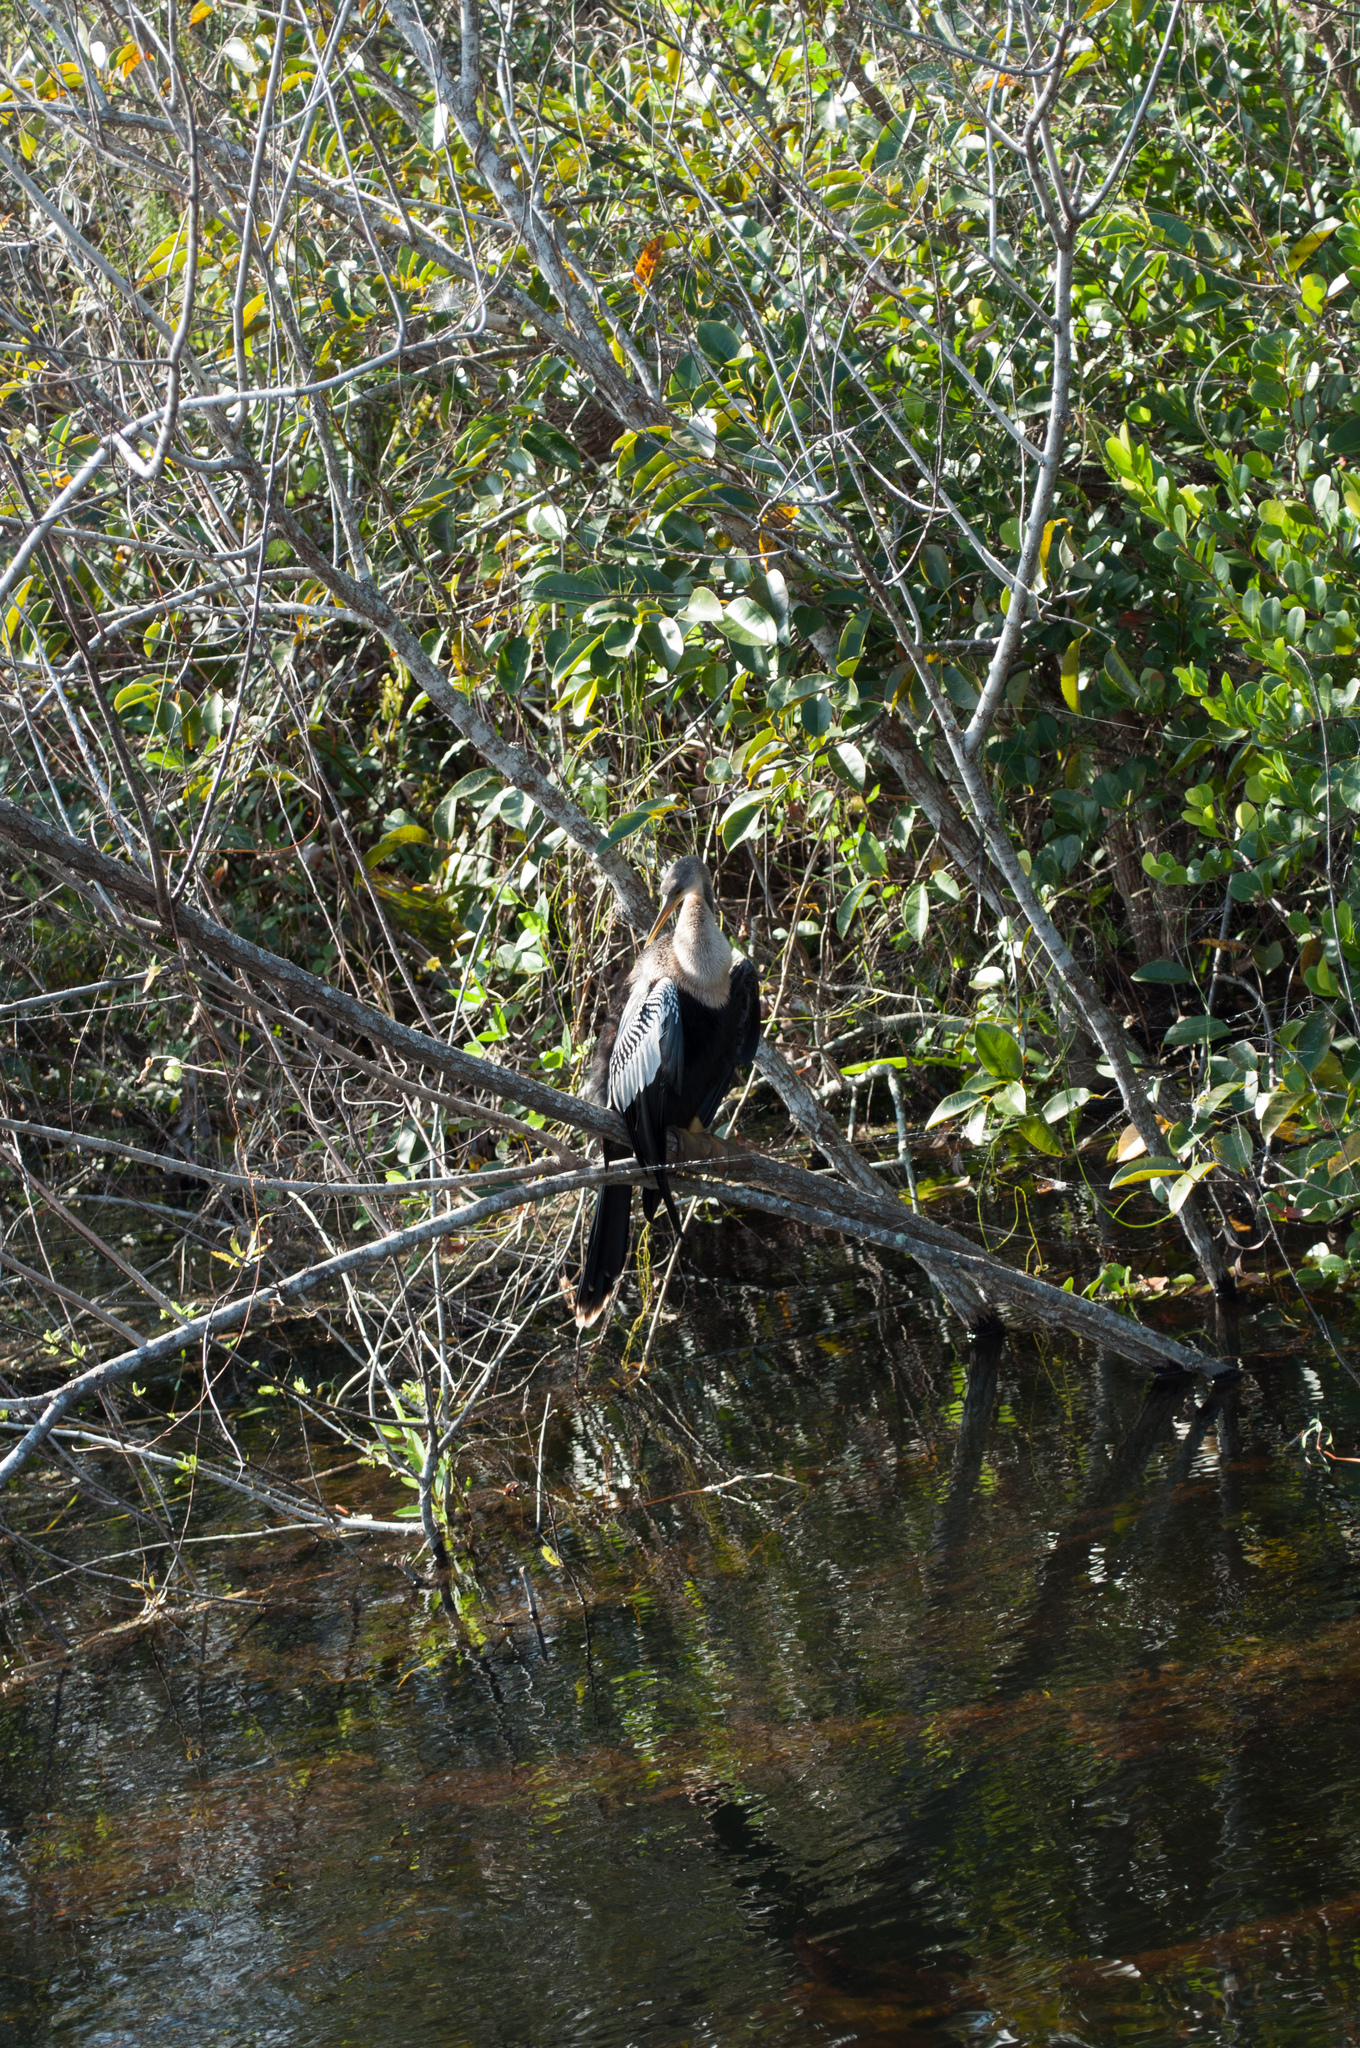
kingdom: Animalia
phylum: Chordata
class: Aves
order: Suliformes
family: Anhingidae
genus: Anhinga
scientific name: Anhinga anhinga
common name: Anhinga
